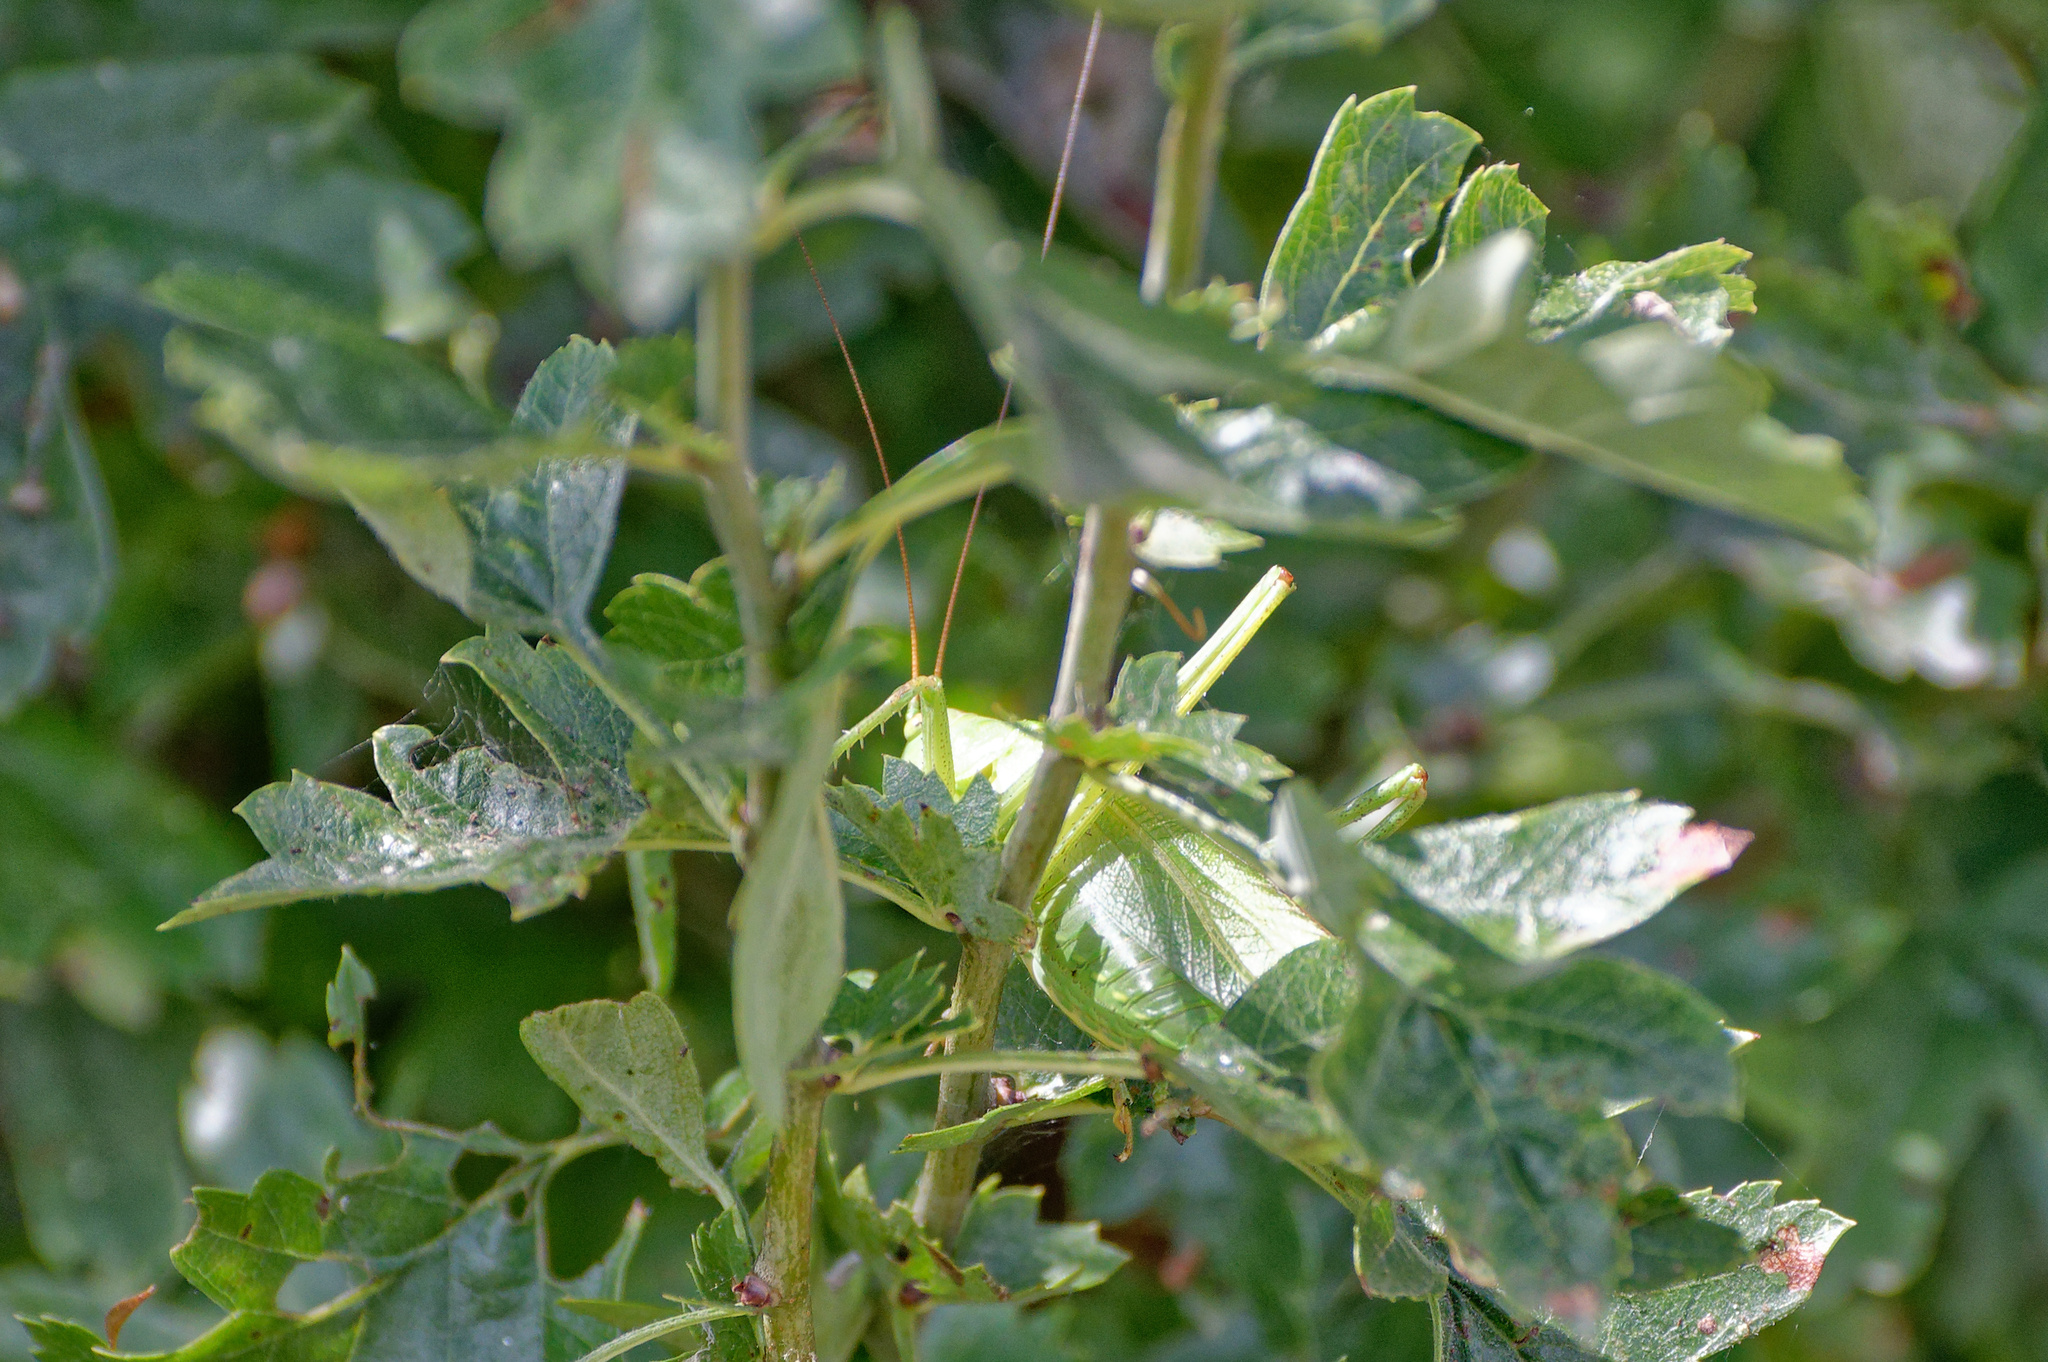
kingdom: Animalia
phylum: Arthropoda
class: Insecta
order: Orthoptera
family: Tettigoniidae
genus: Tettigonia
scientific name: Tettigonia viridissima
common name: Great green bush-cricket
